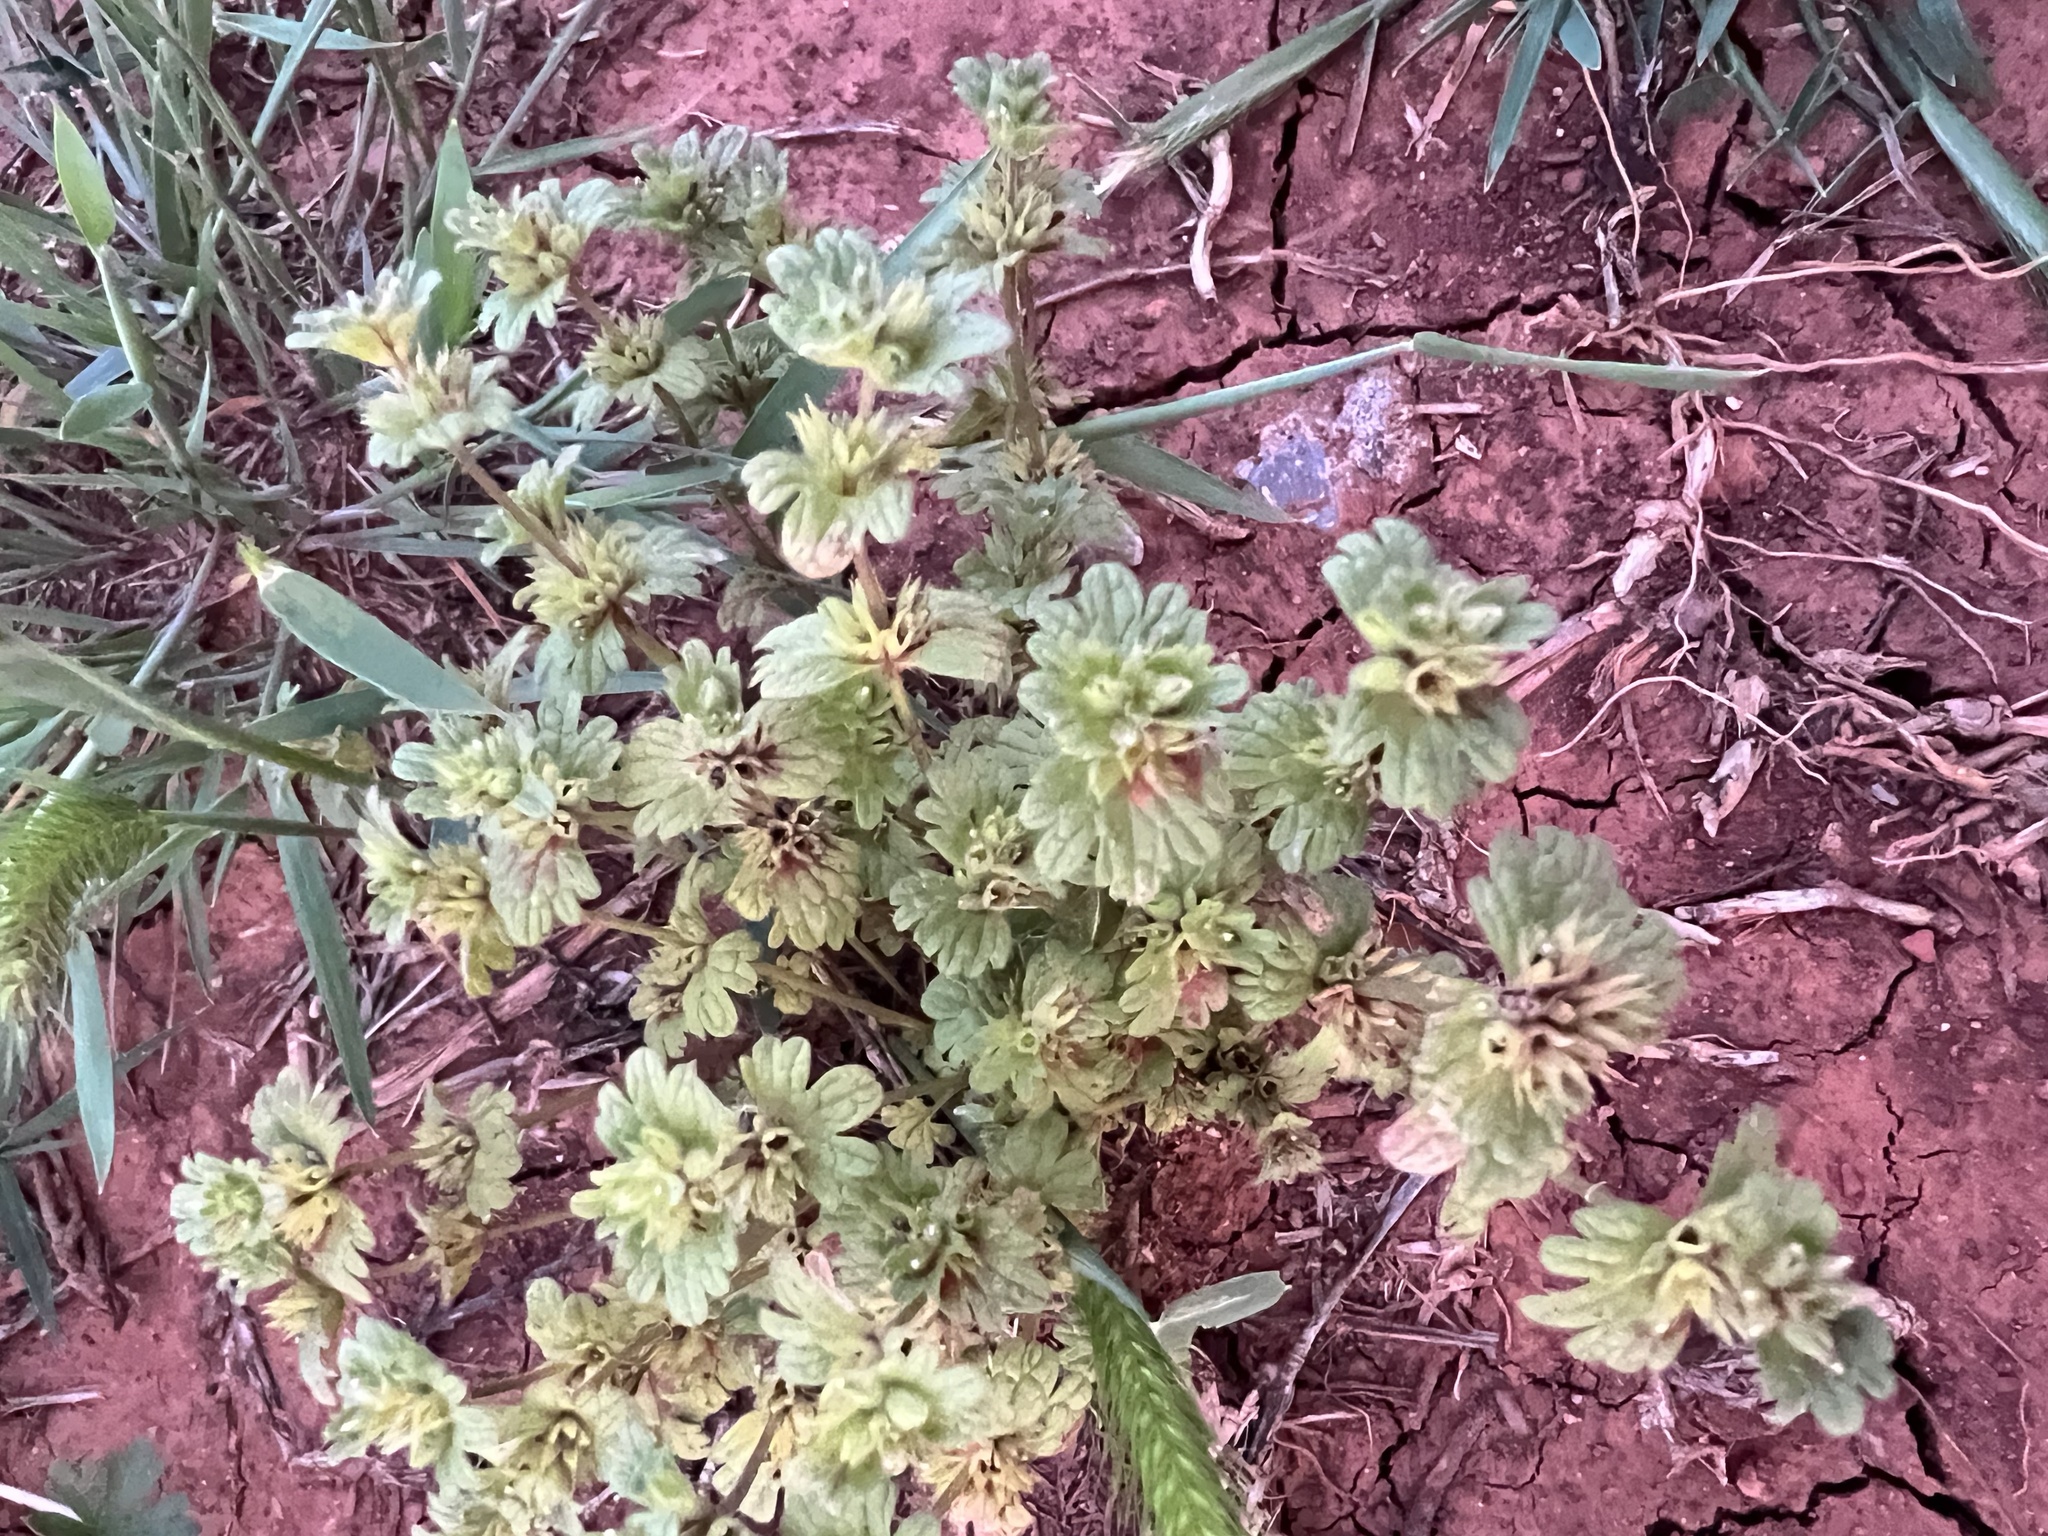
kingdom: Plantae
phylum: Tracheophyta
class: Magnoliopsida
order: Lamiales
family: Lamiaceae
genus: Lamium
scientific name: Lamium amplexicaule
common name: Henbit dead-nettle
